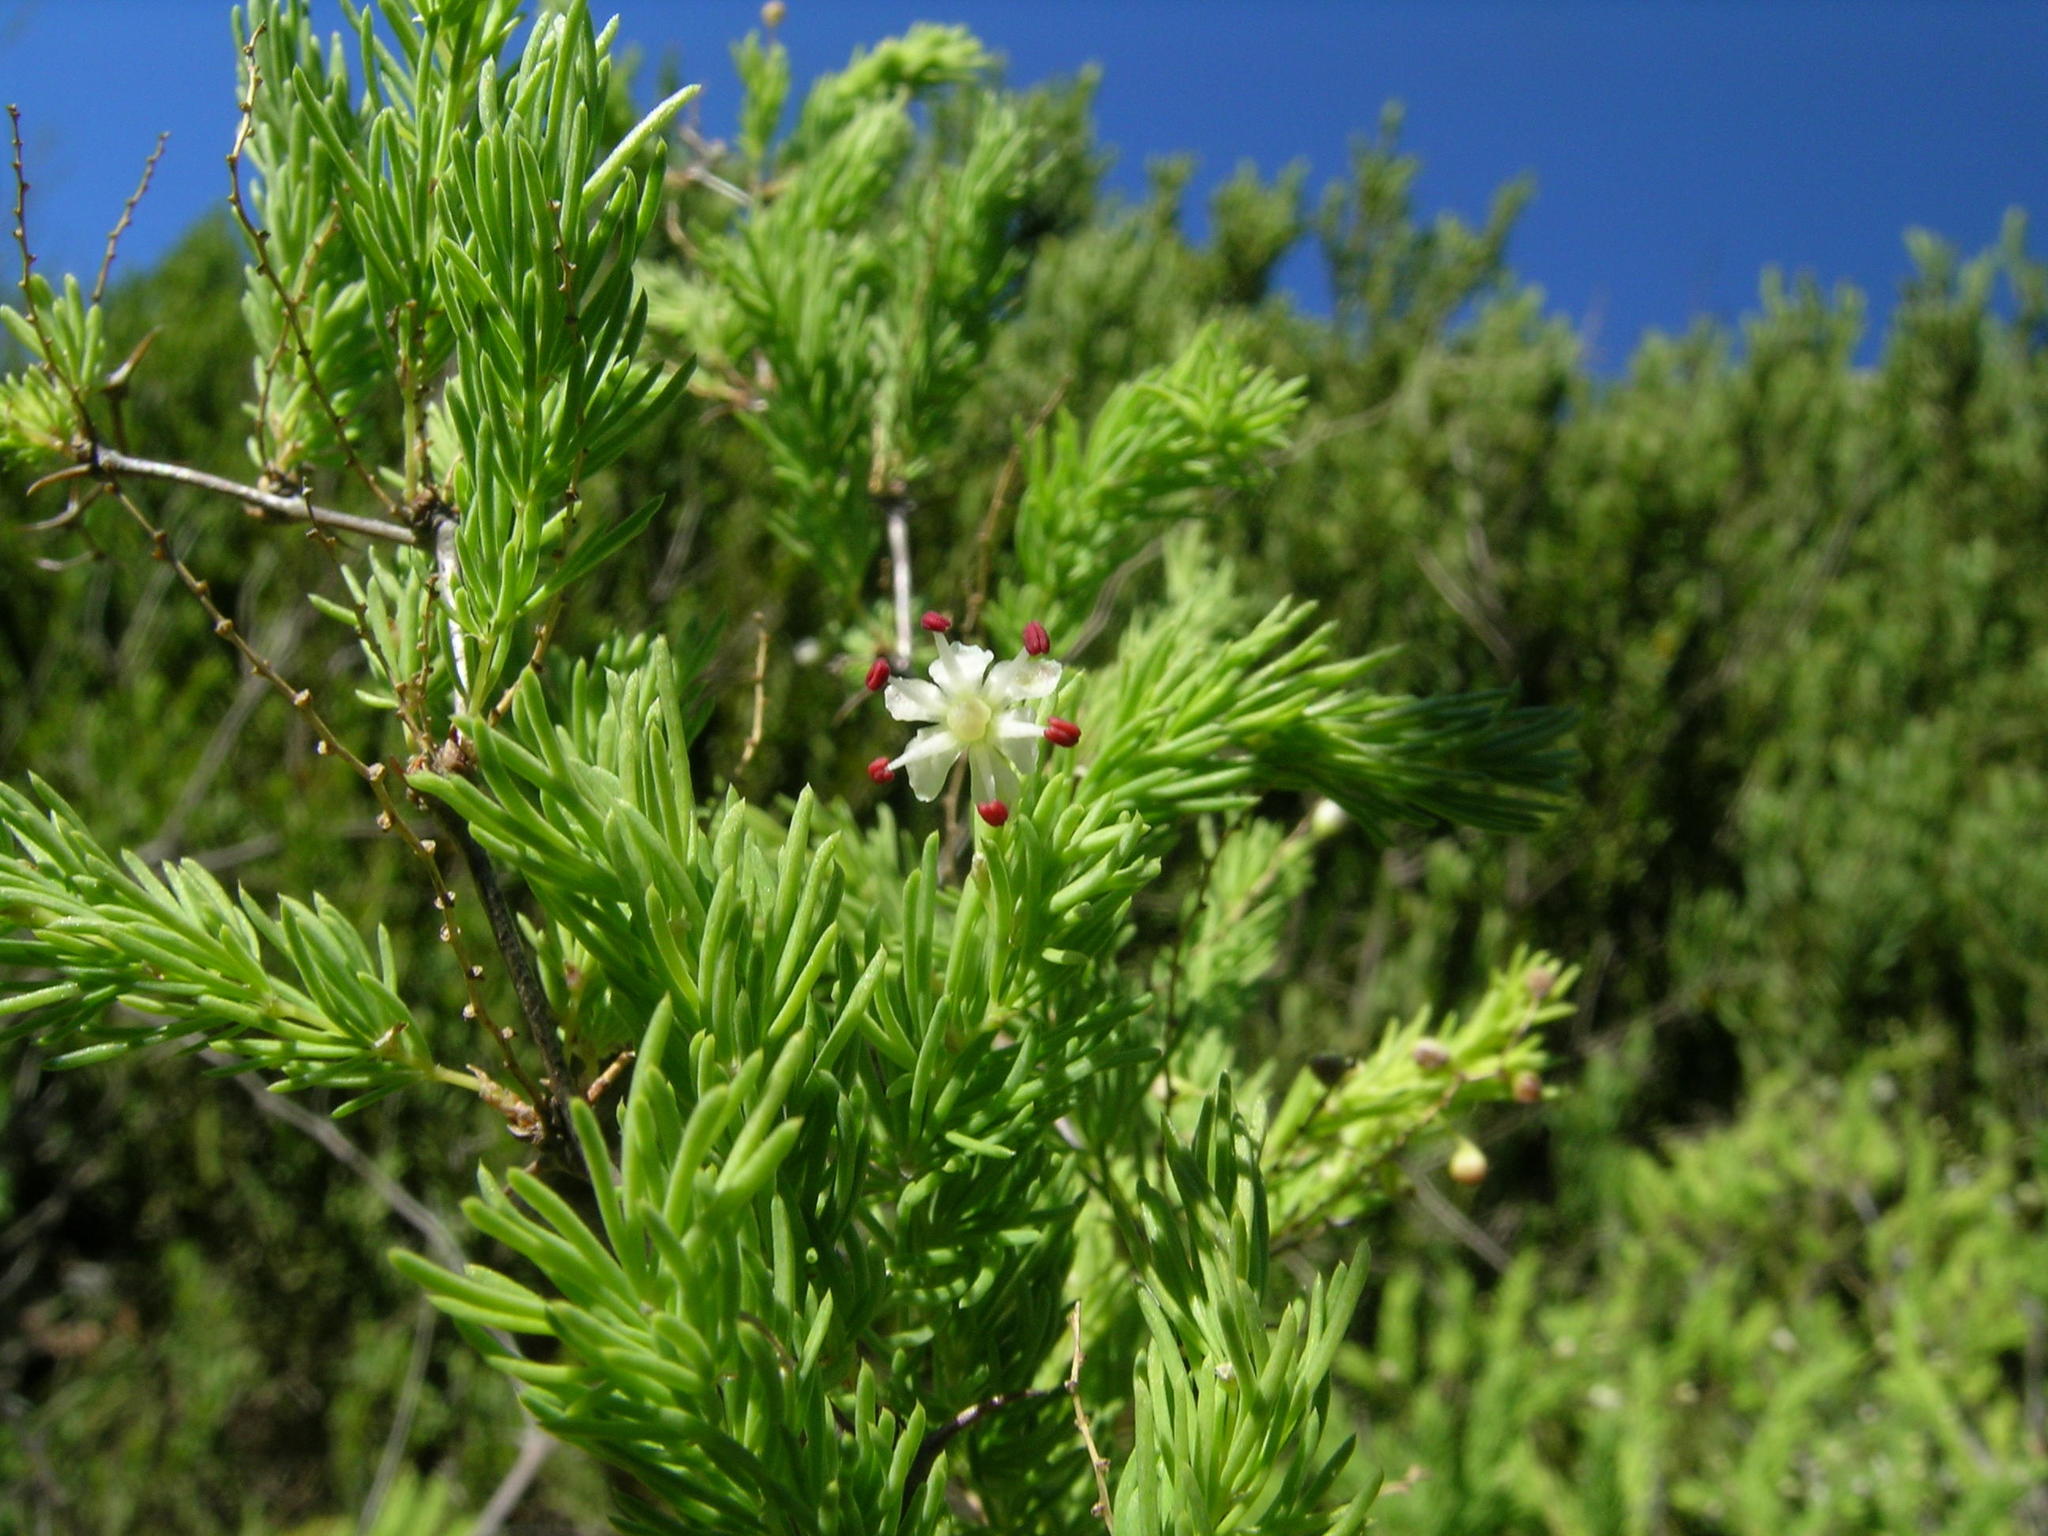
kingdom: Plantae
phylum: Tracheophyta
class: Liliopsida
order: Asparagales
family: Asparagaceae
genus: Asparagus
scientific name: Asparagus rubicundus
